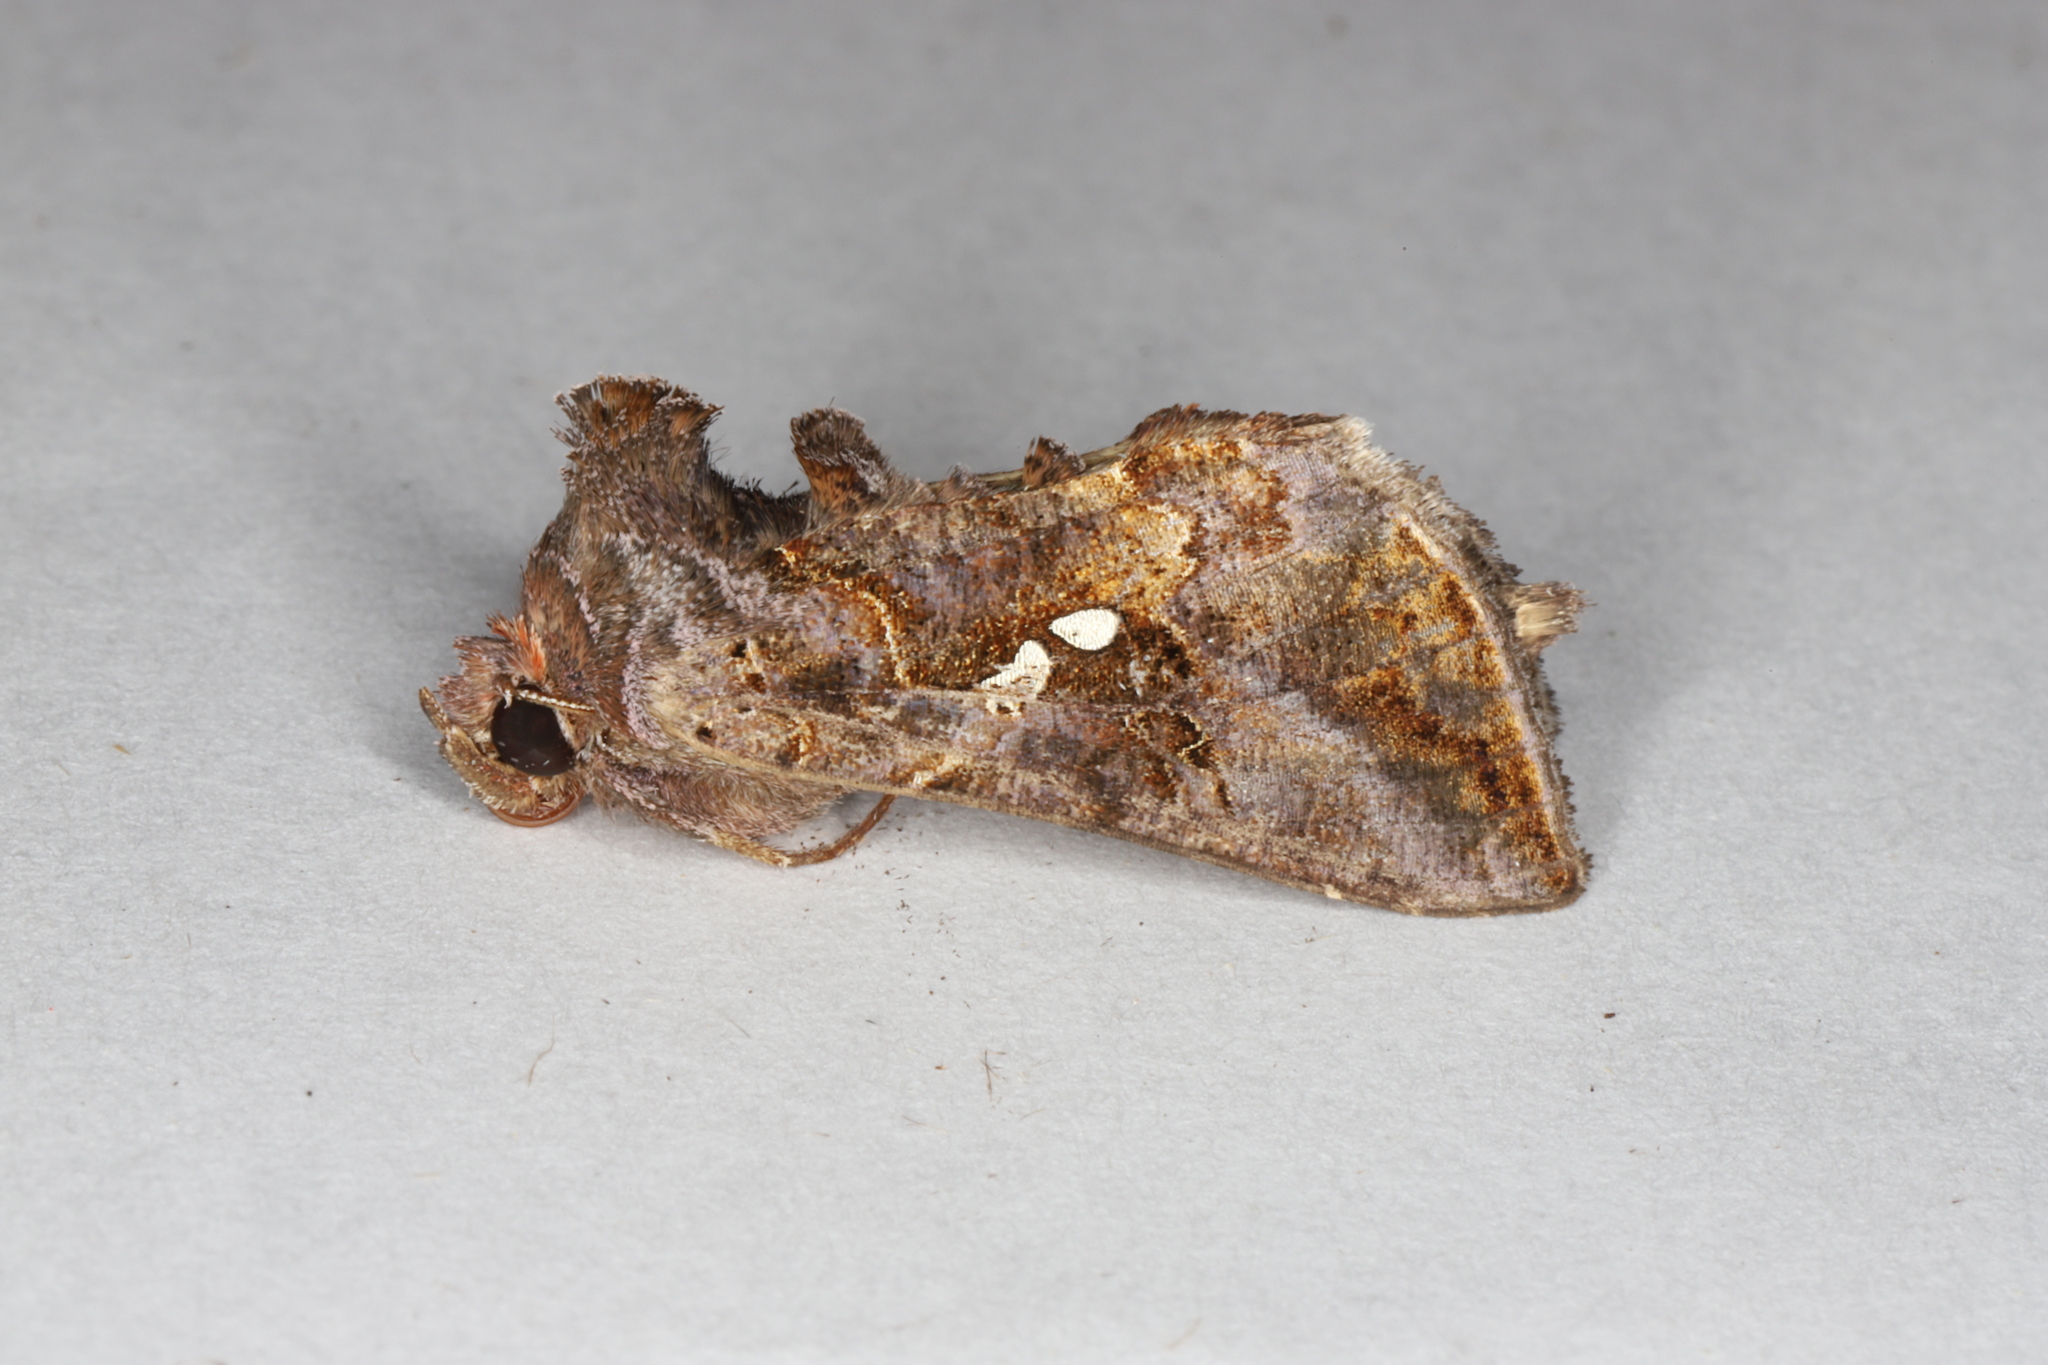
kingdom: Animalia
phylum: Arthropoda
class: Insecta
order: Lepidoptera
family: Noctuidae
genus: Autographa
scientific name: Autographa precationis
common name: Common looper moth
